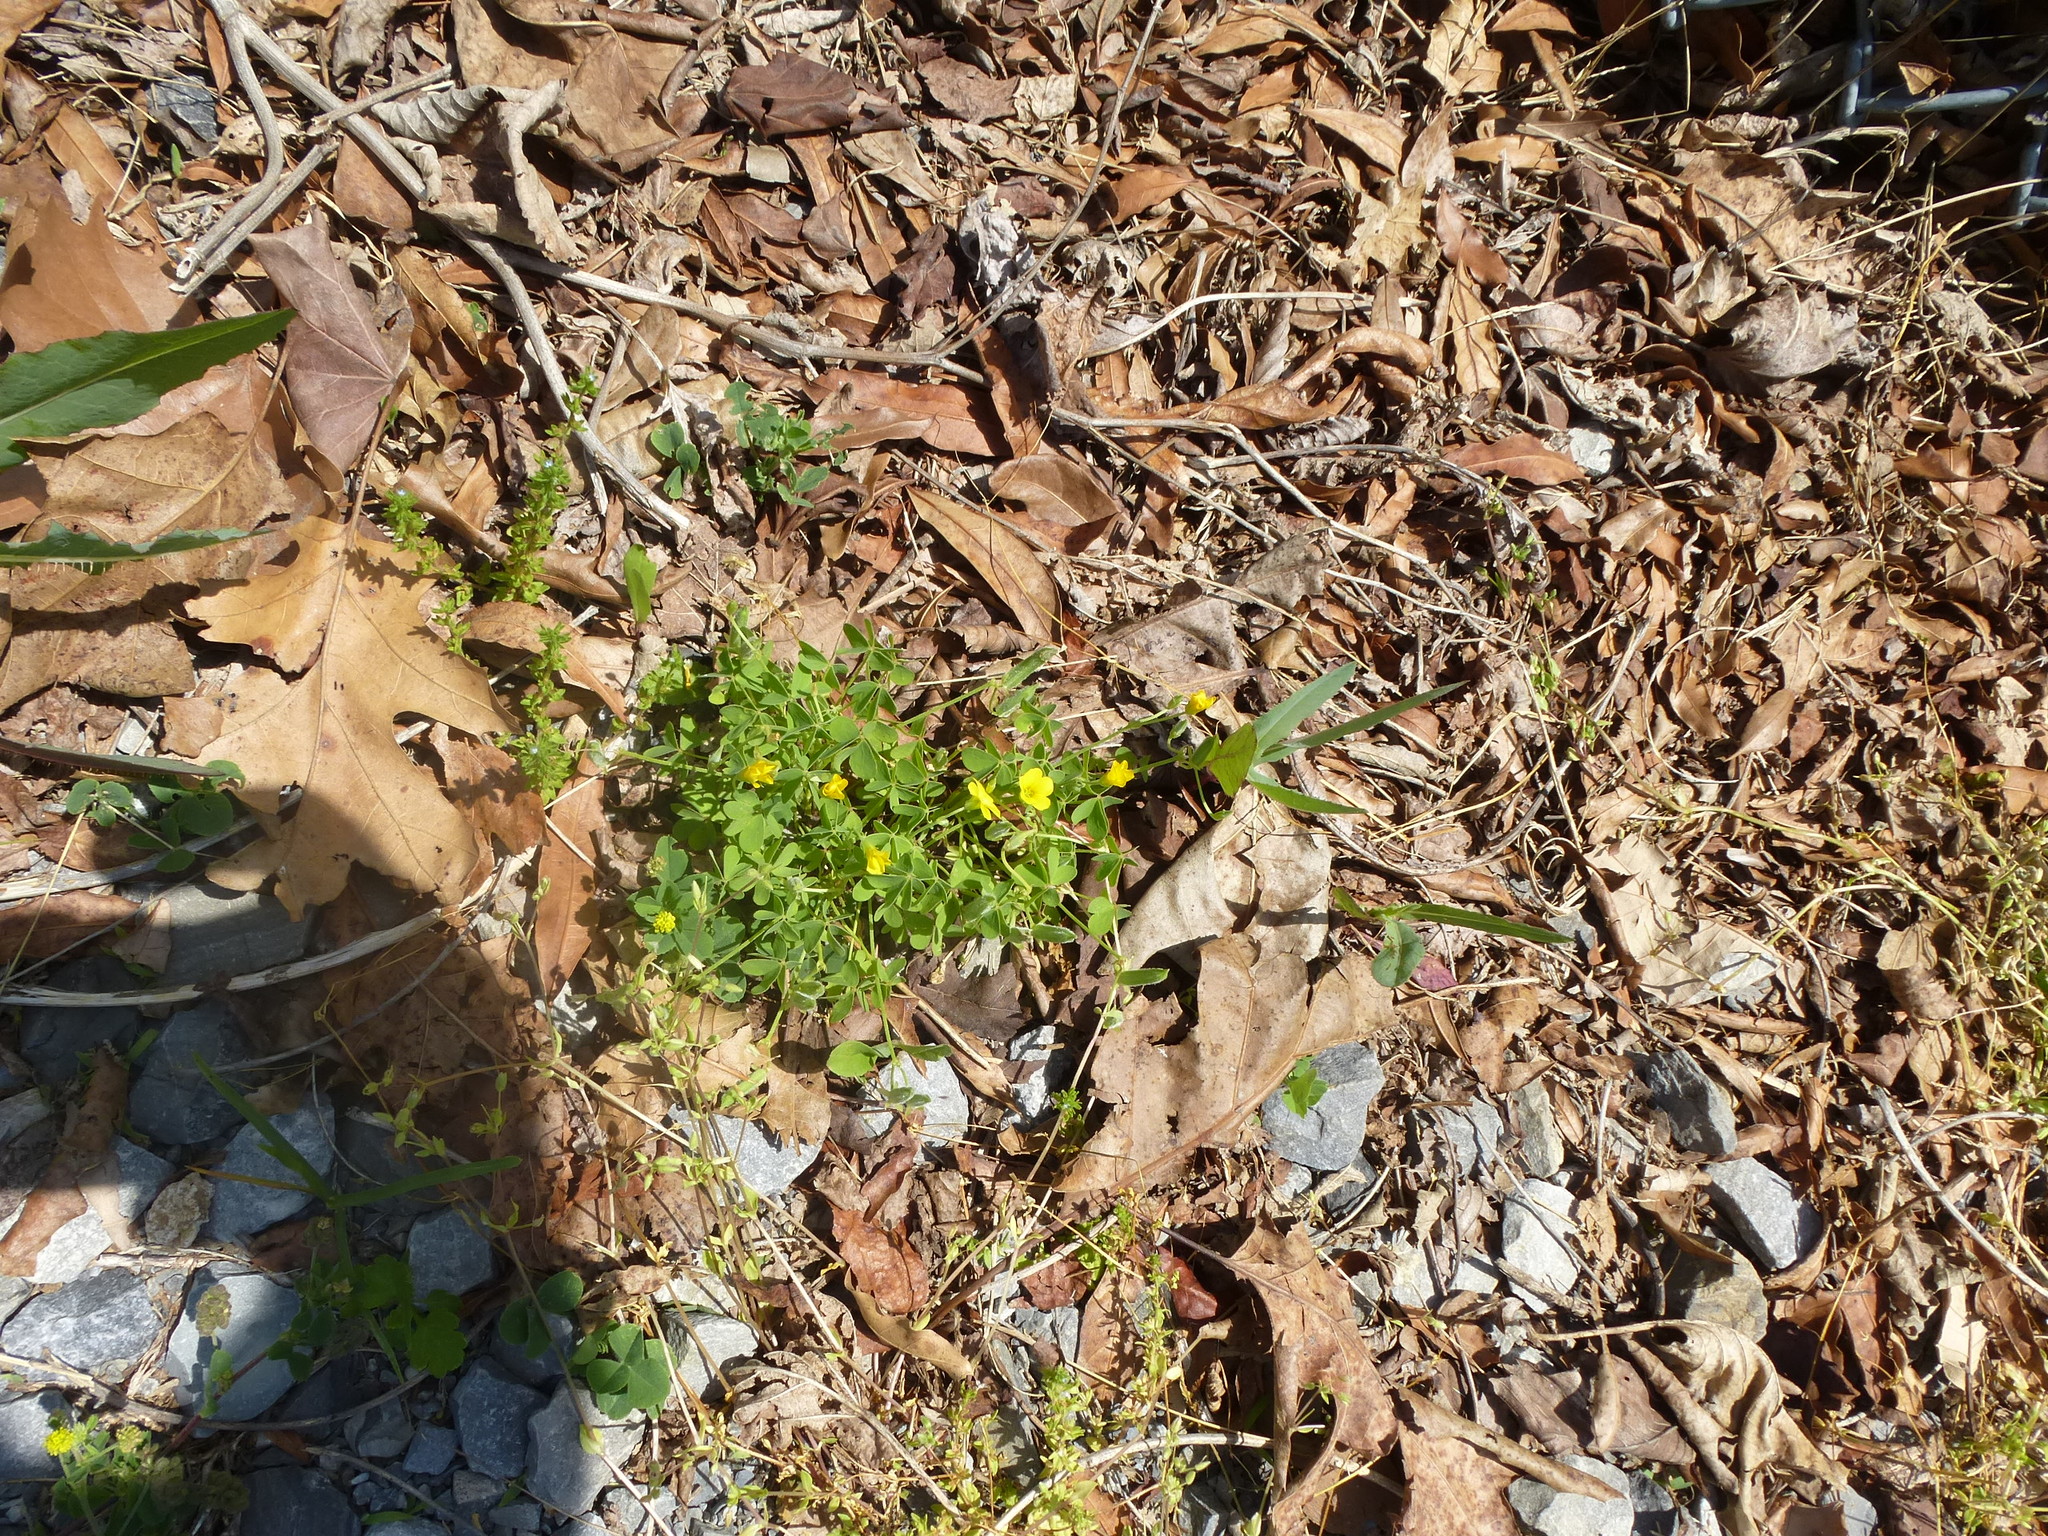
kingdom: Plantae
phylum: Tracheophyta
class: Magnoliopsida
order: Oxalidales
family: Oxalidaceae
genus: Oxalis
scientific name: Oxalis corniculata
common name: Procumbent yellow-sorrel
